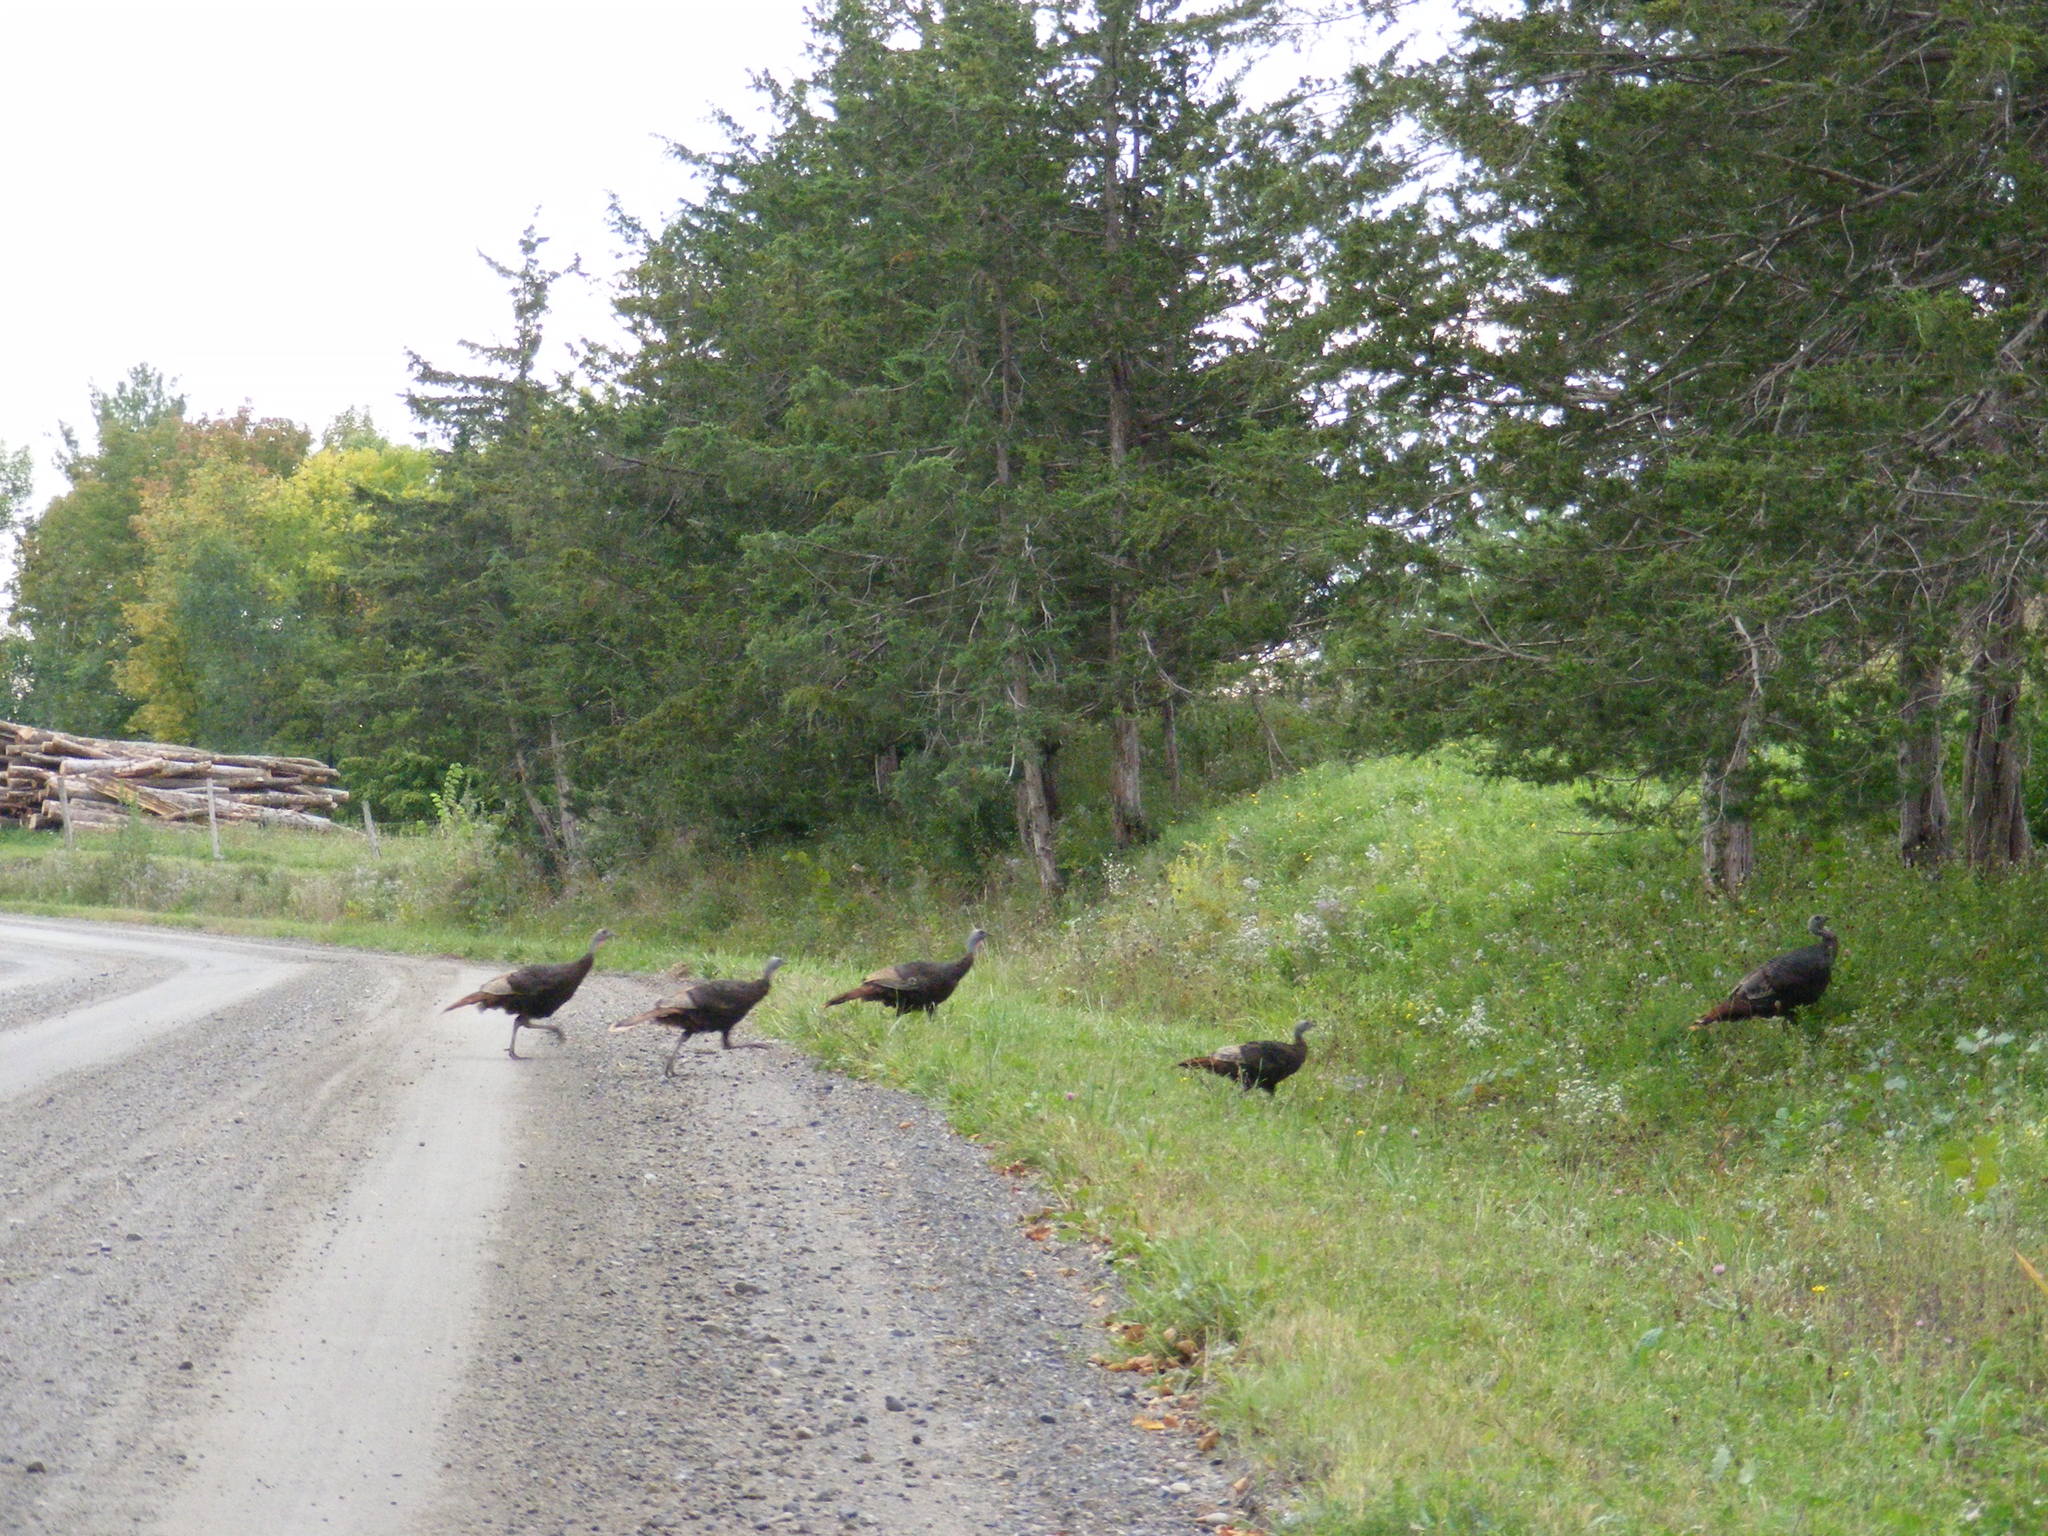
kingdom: Animalia
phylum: Chordata
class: Aves
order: Galliformes
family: Phasianidae
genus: Meleagris
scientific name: Meleagris gallopavo
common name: Wild turkey
